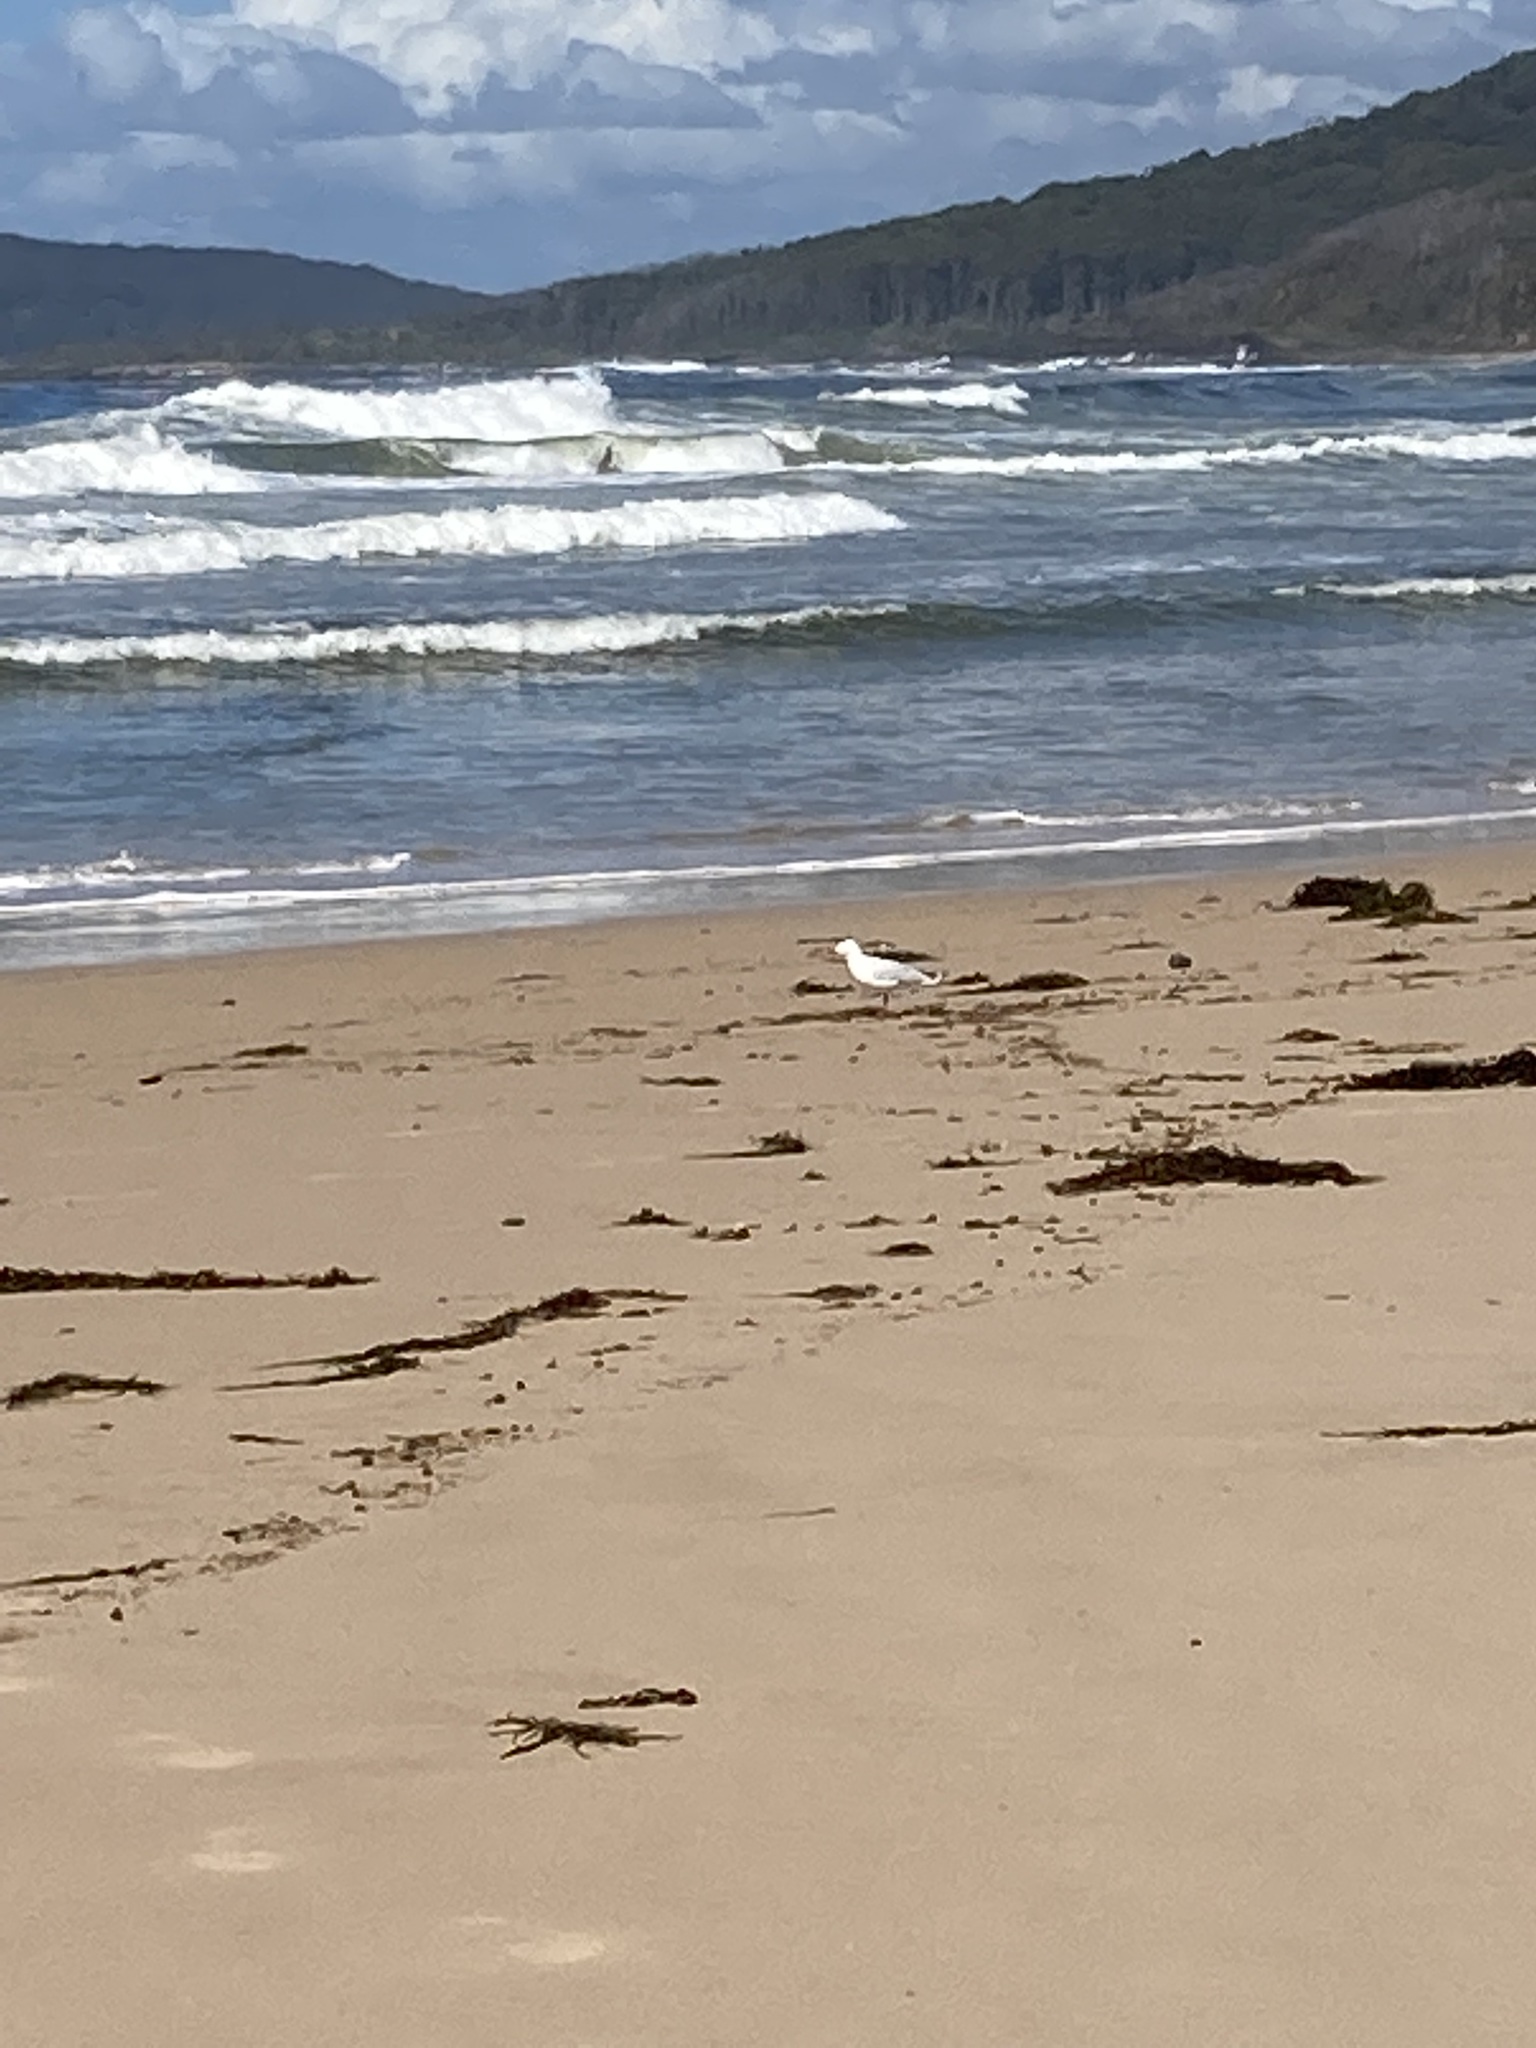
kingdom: Animalia
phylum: Chordata
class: Aves
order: Charadriiformes
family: Laridae
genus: Chroicocephalus
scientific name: Chroicocephalus novaehollandiae
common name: Silver gull
